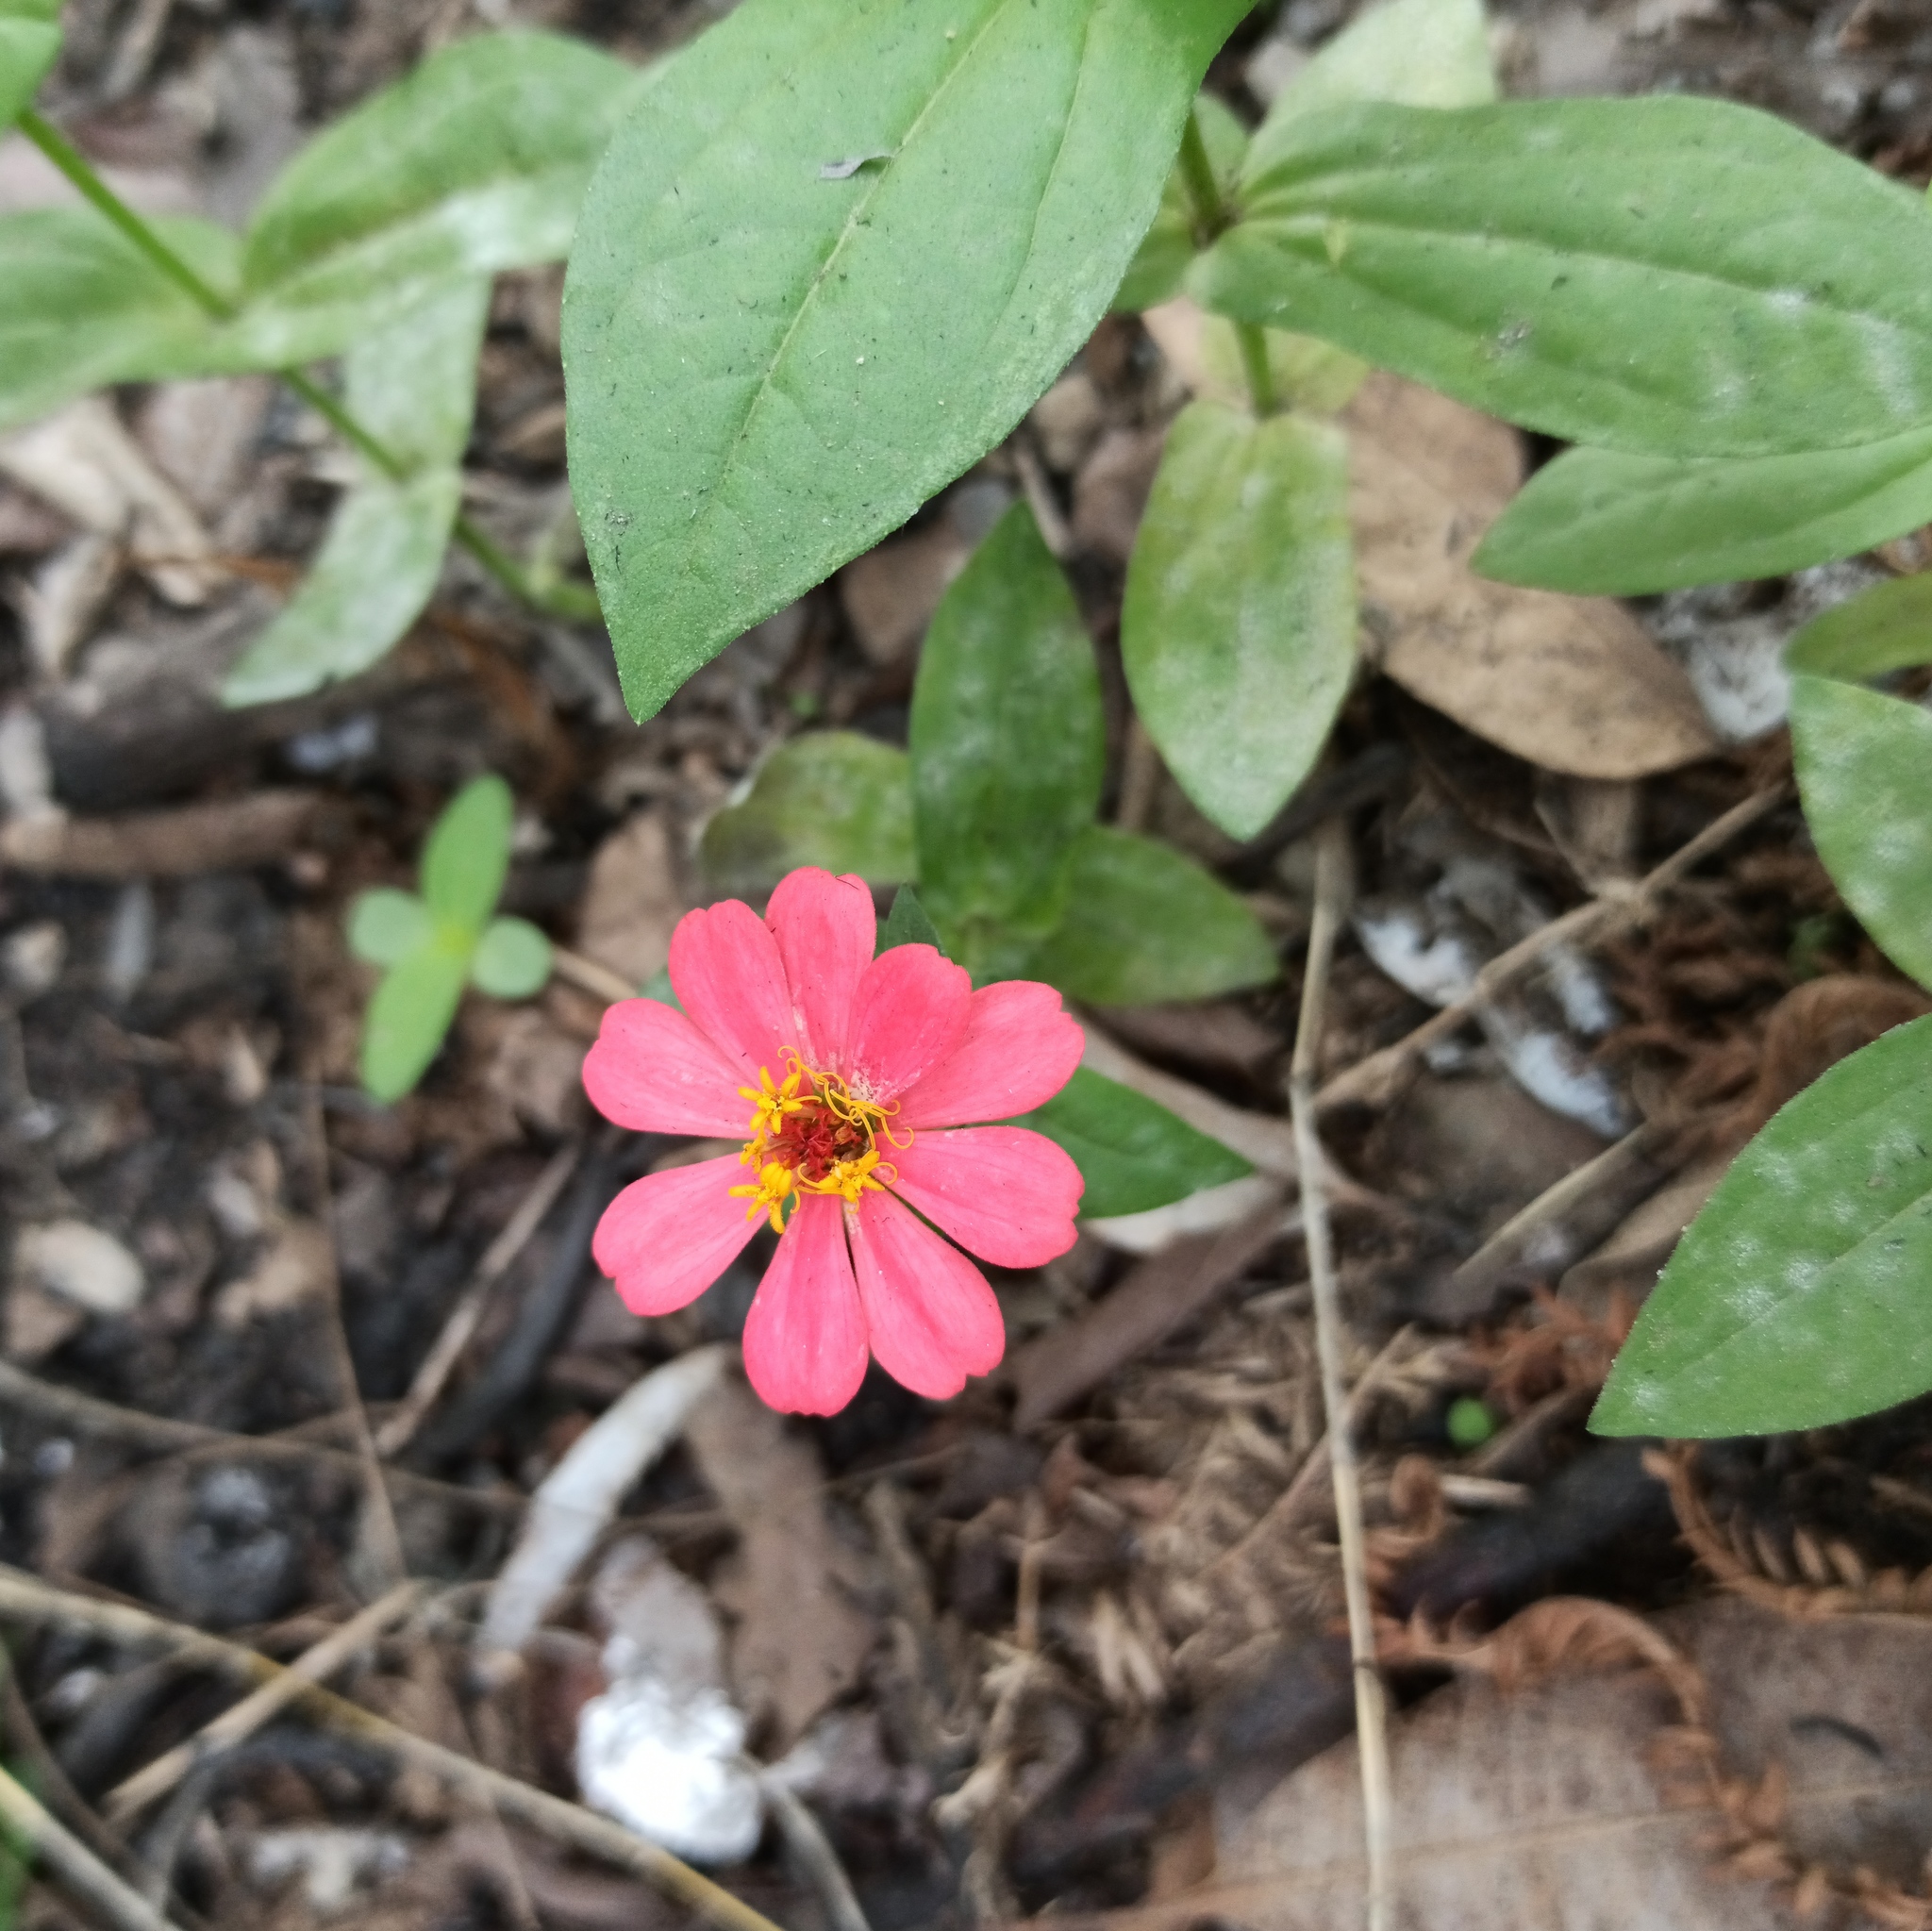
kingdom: Plantae
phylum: Tracheophyta
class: Magnoliopsida
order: Asterales
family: Asteraceae
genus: Zinnia
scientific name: Zinnia elegans
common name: Youth-and-age
